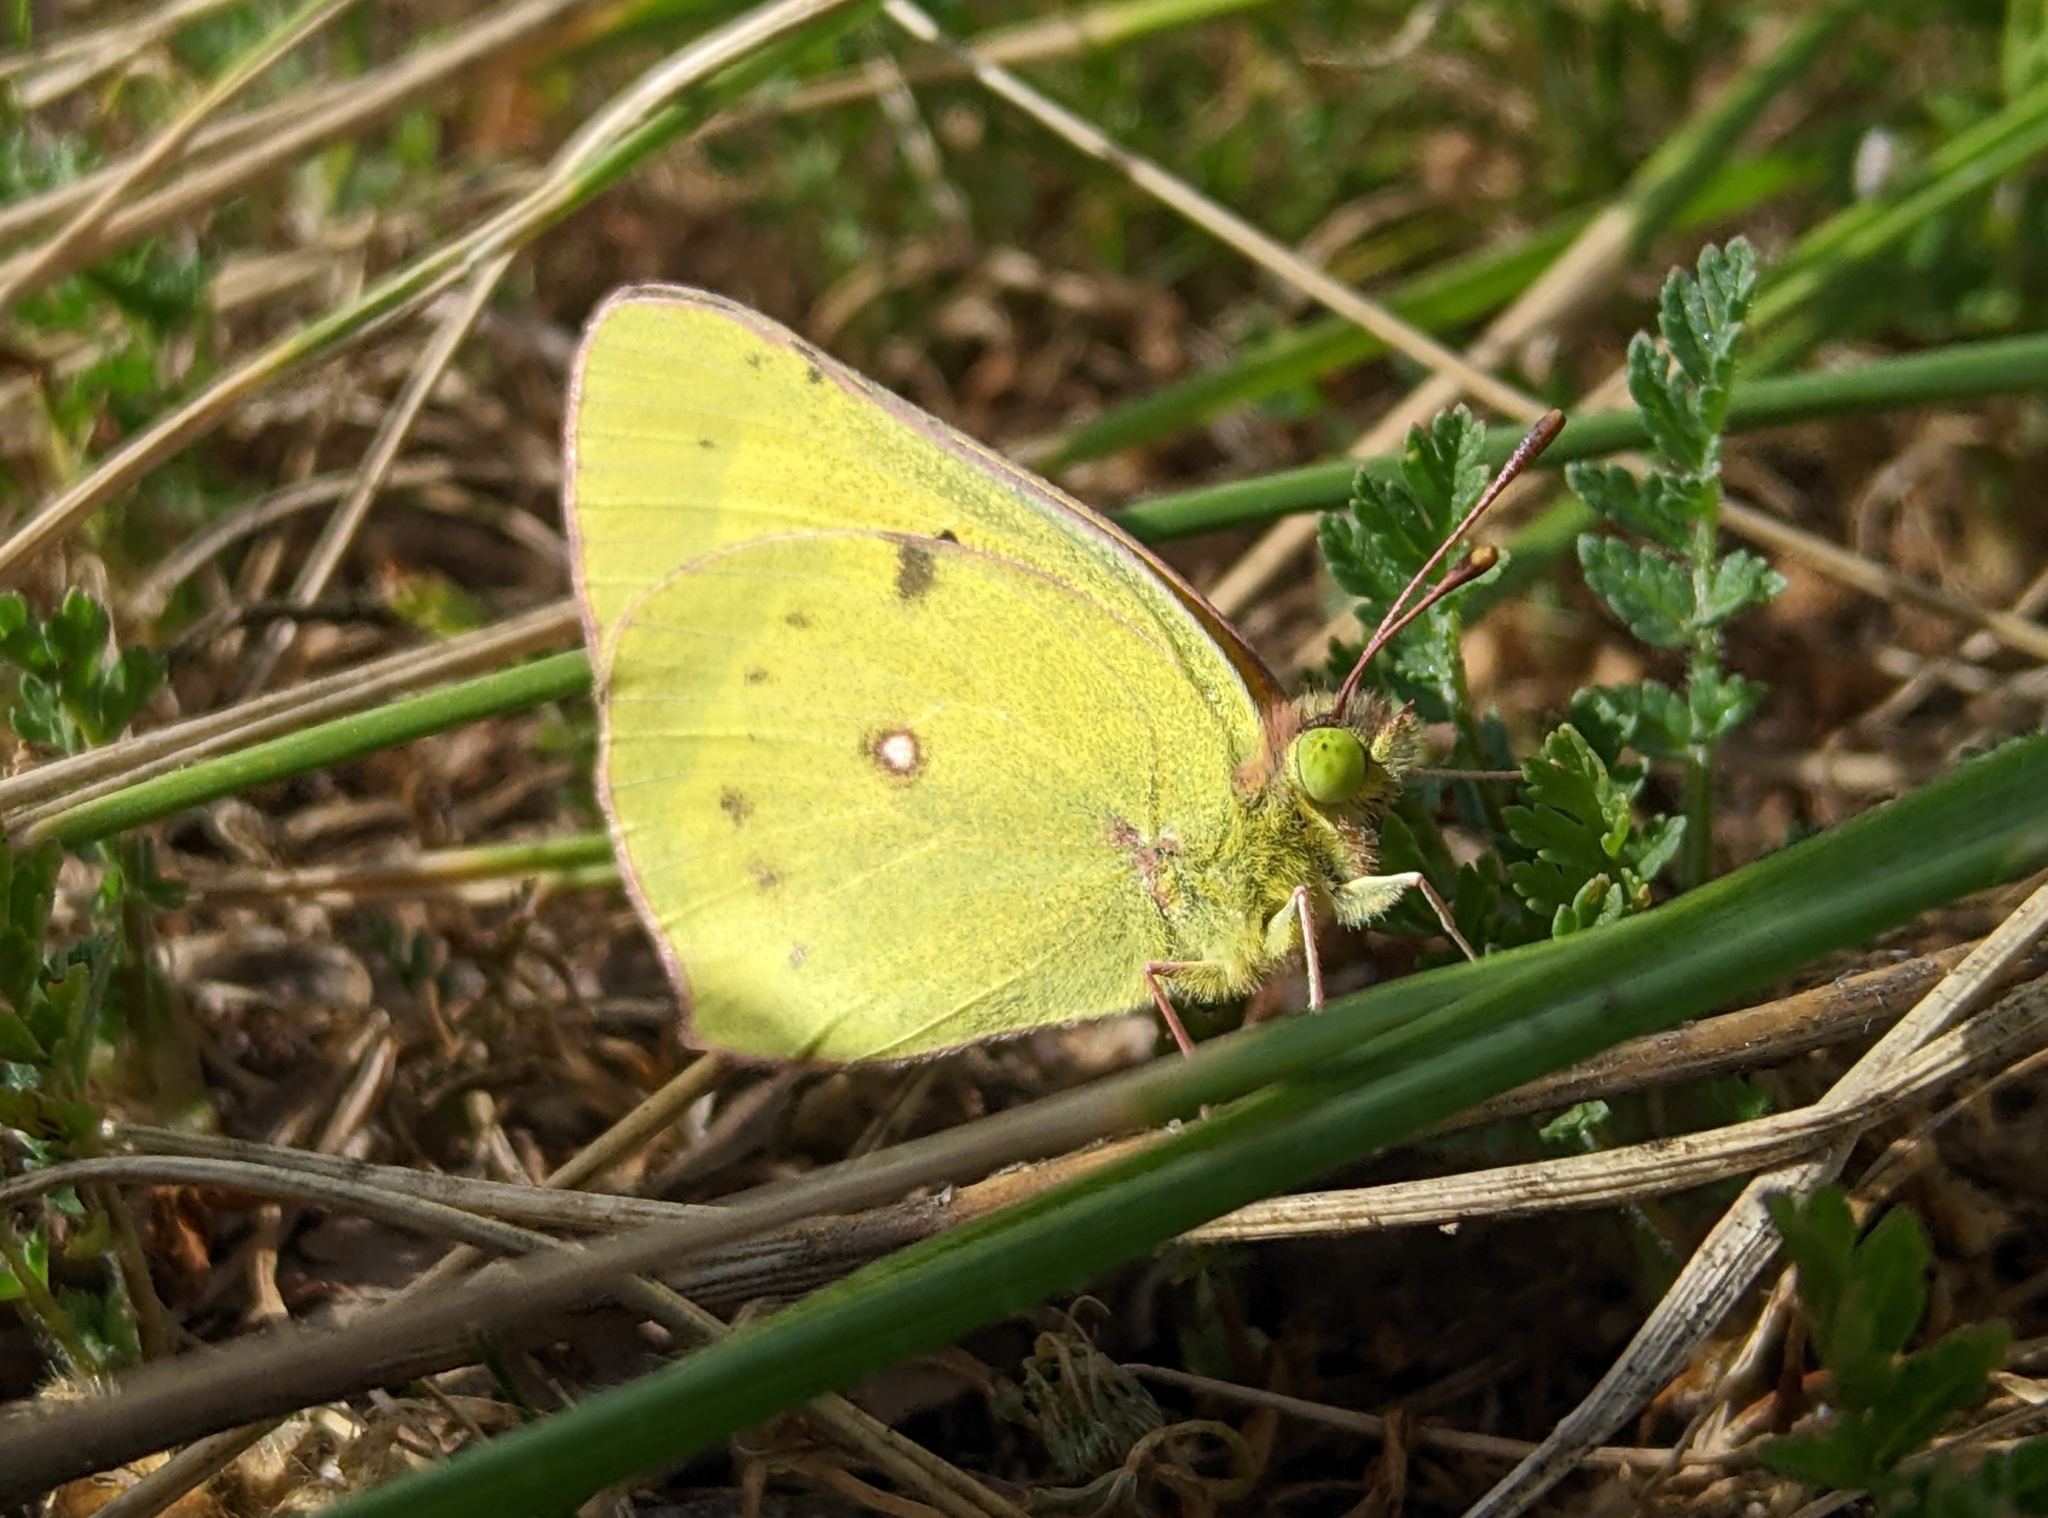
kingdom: Animalia
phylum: Arthropoda
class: Insecta
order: Lepidoptera
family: Pieridae
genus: Colias
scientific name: Colias eurytheme
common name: Alfalfa butterfly
